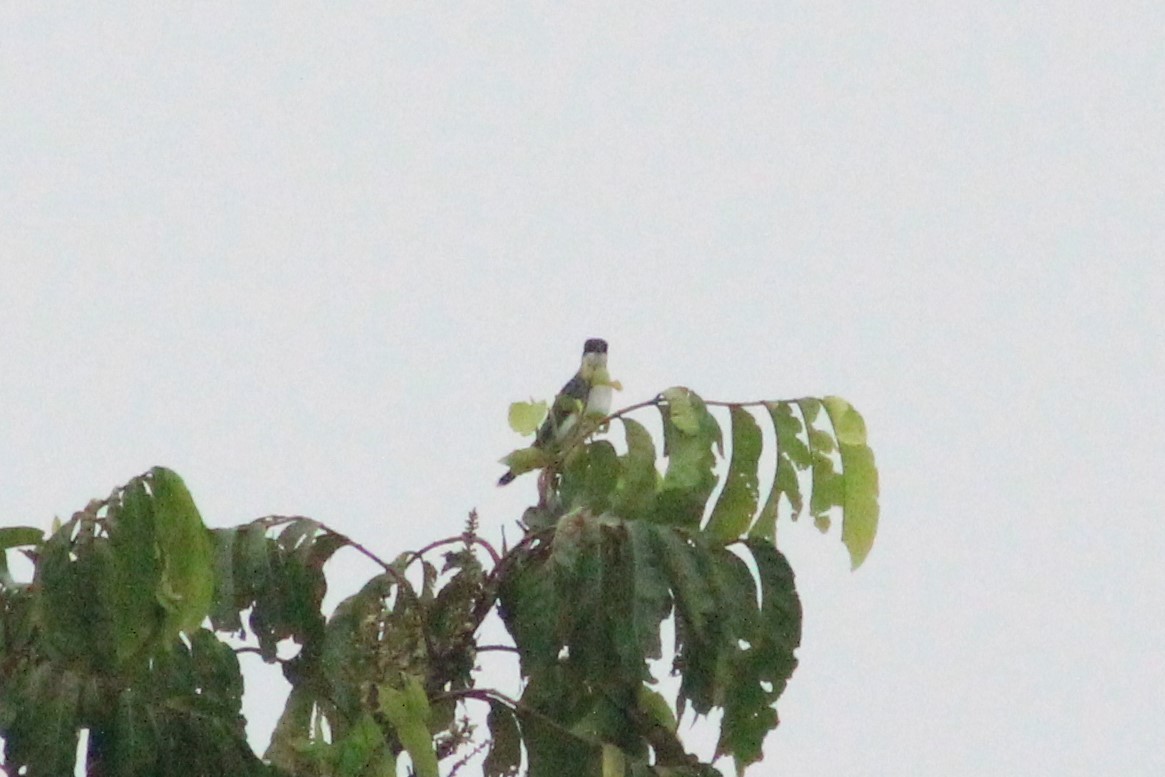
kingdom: Animalia
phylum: Chordata
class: Aves
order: Passeriformes
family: Tyrannidae
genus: Tyrannus
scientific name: Tyrannus tyrannus
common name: Eastern kingbird
